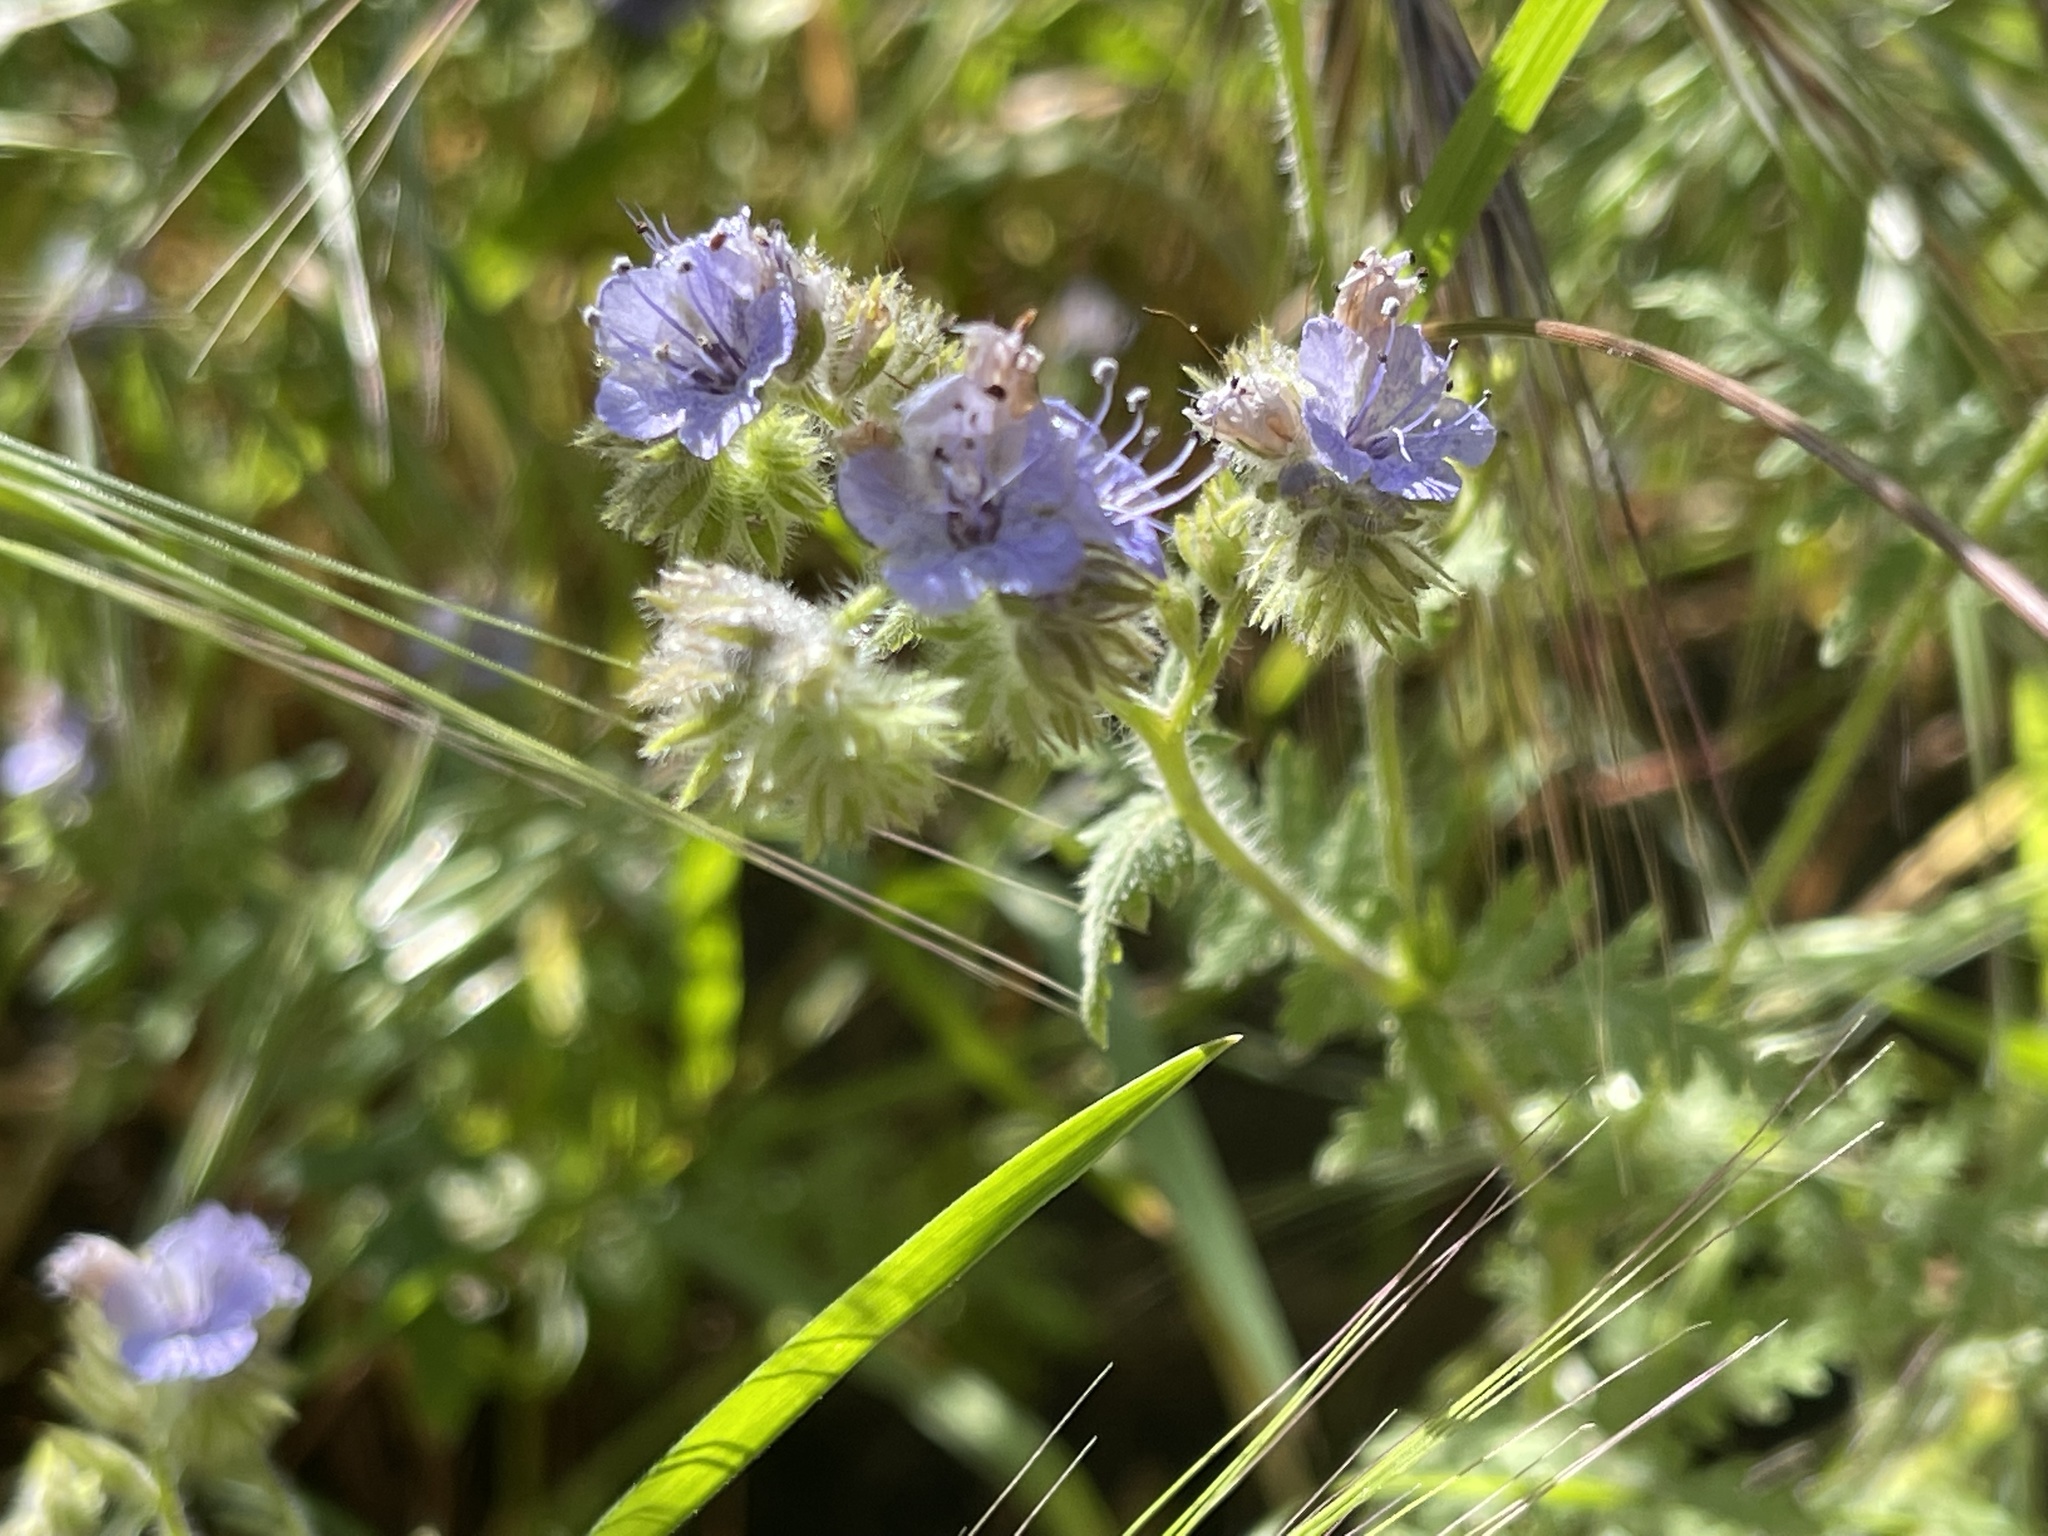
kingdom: Plantae
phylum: Tracheophyta
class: Magnoliopsida
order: Boraginales
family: Hydrophyllaceae
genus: Phacelia
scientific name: Phacelia distans
